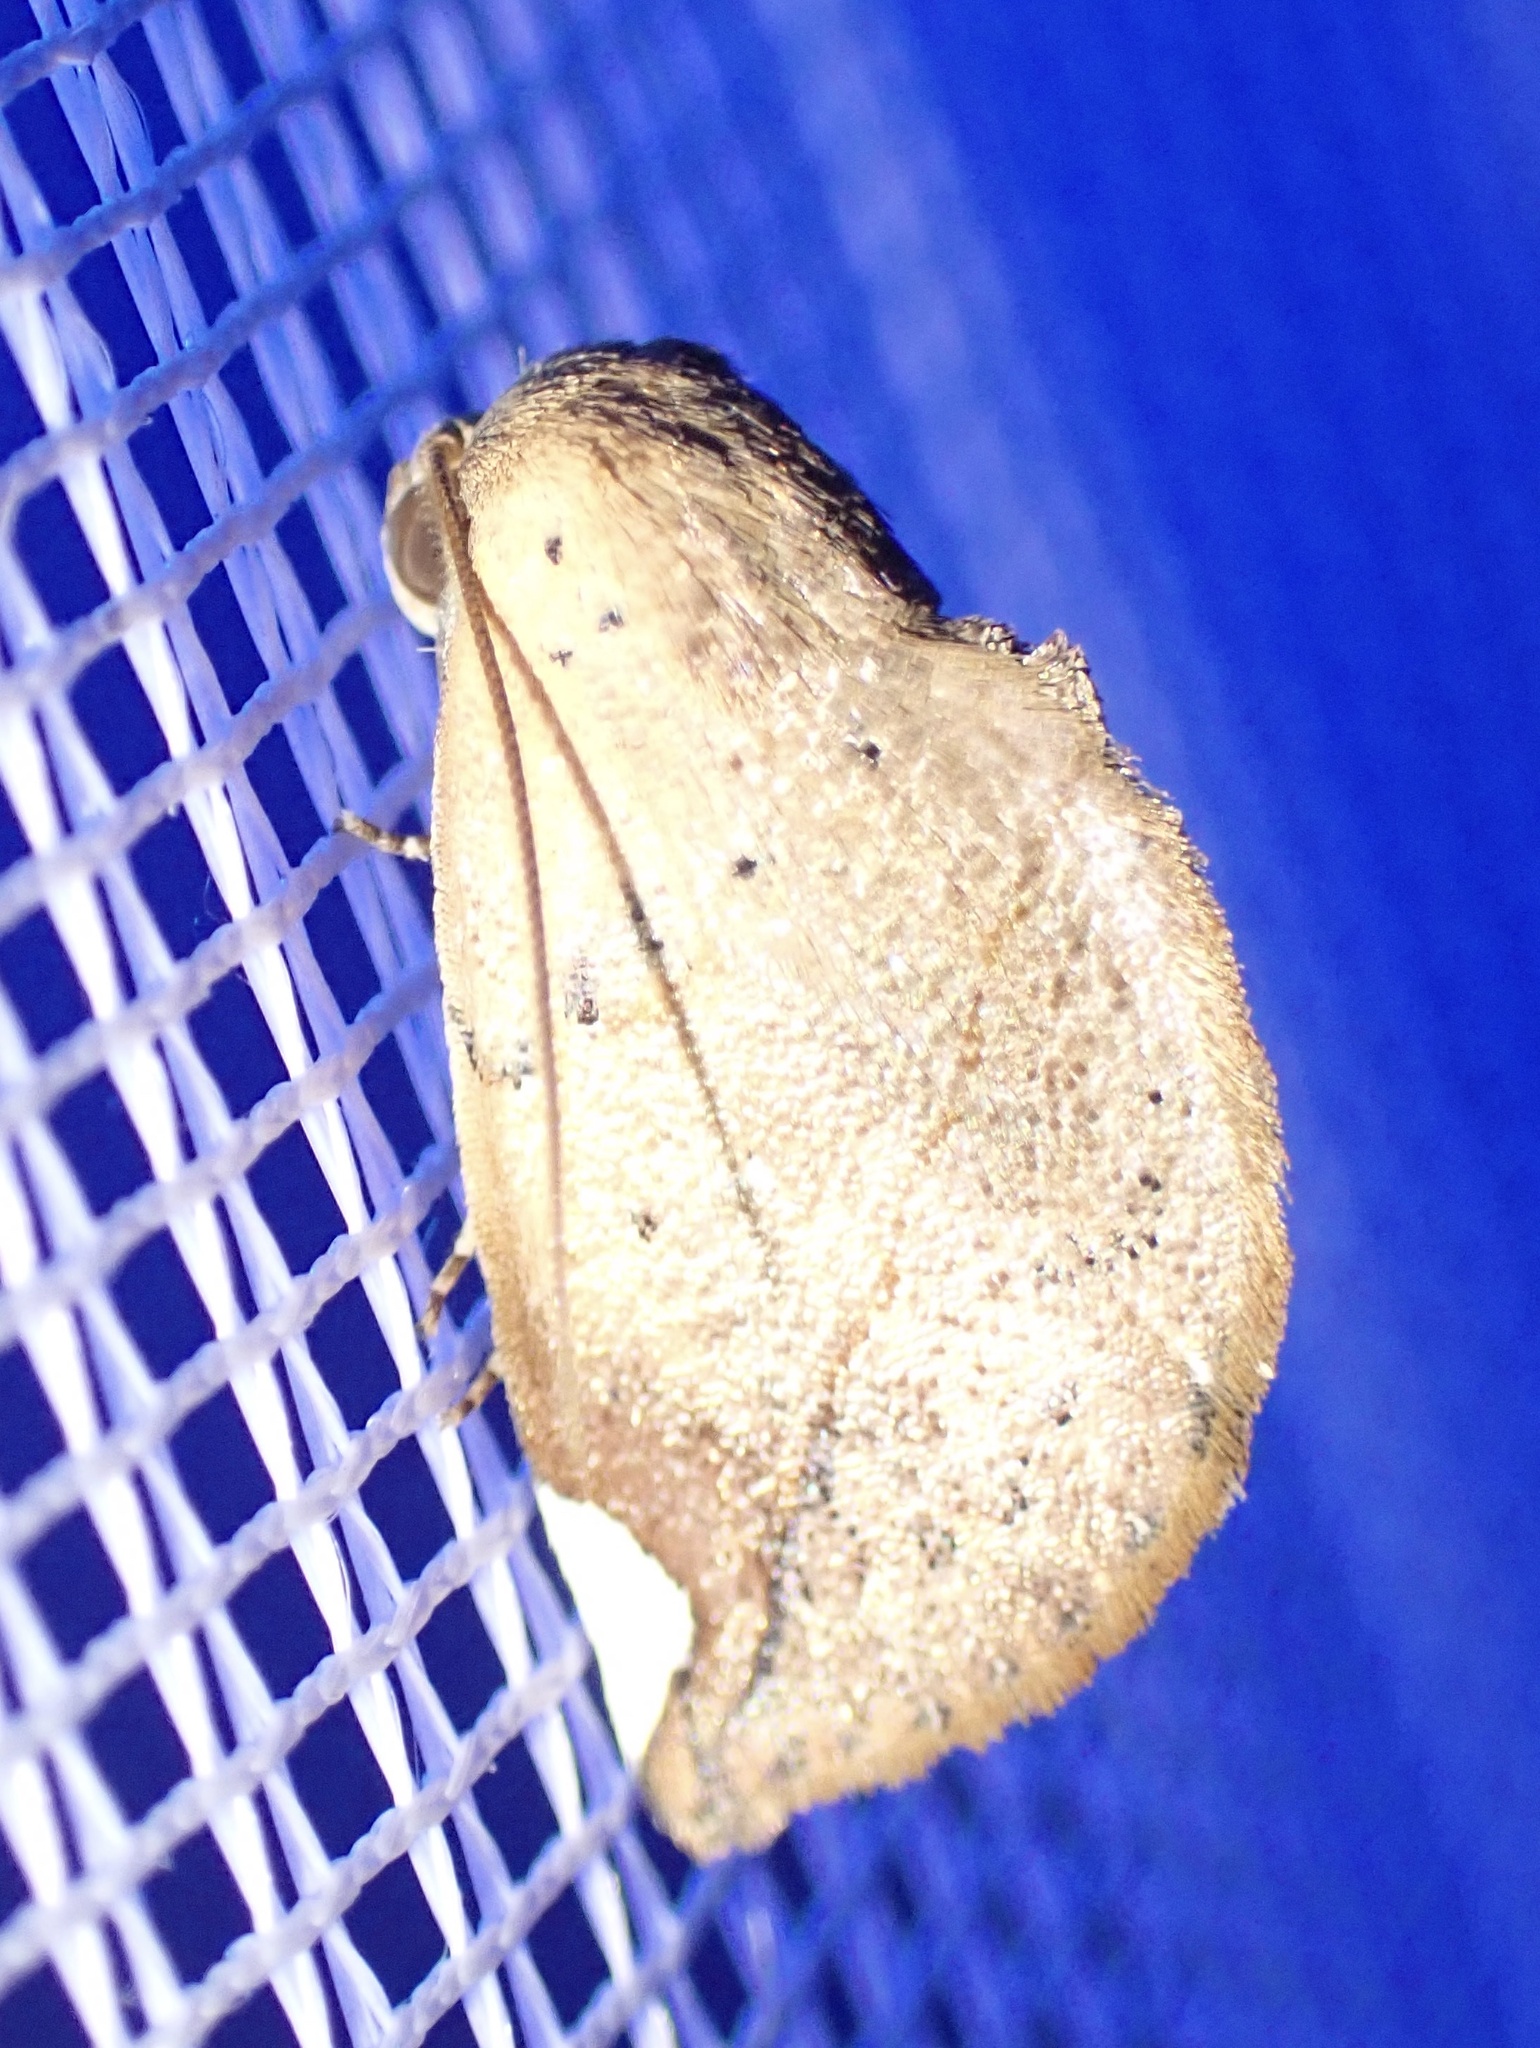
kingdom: Animalia
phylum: Arthropoda
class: Insecta
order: Lepidoptera
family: Nolidae
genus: Negeta
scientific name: Negeta contrariata
